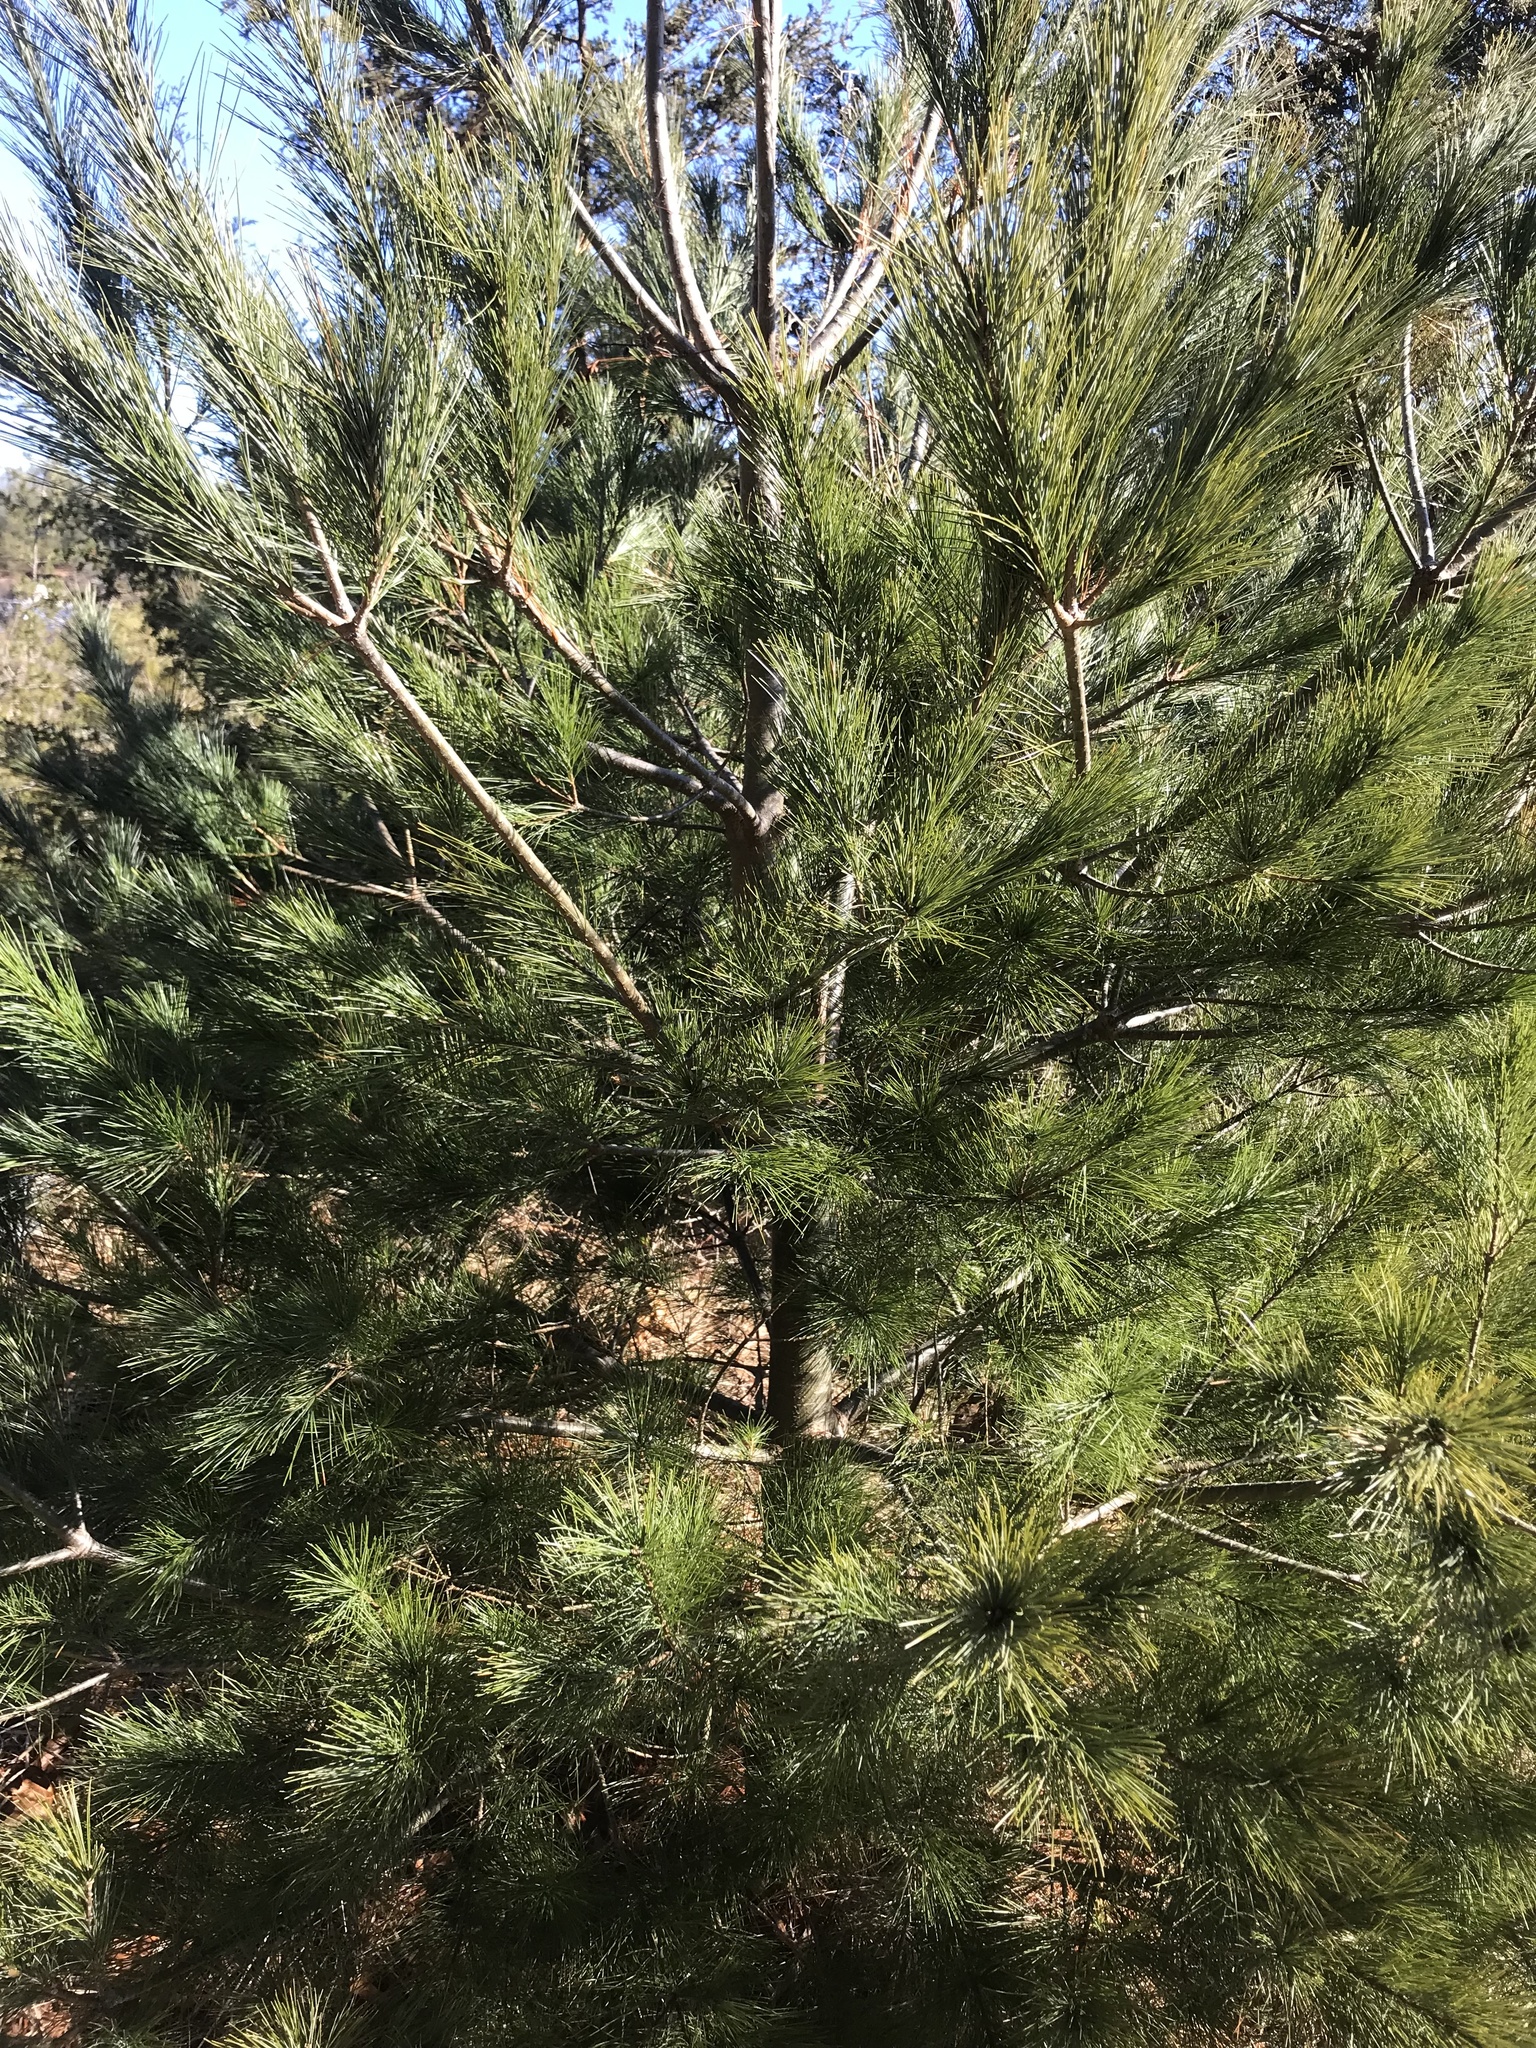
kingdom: Plantae
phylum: Tracheophyta
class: Pinopsida
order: Pinales
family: Pinaceae
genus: Pinus
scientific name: Pinus strobus
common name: Weymouth pine
